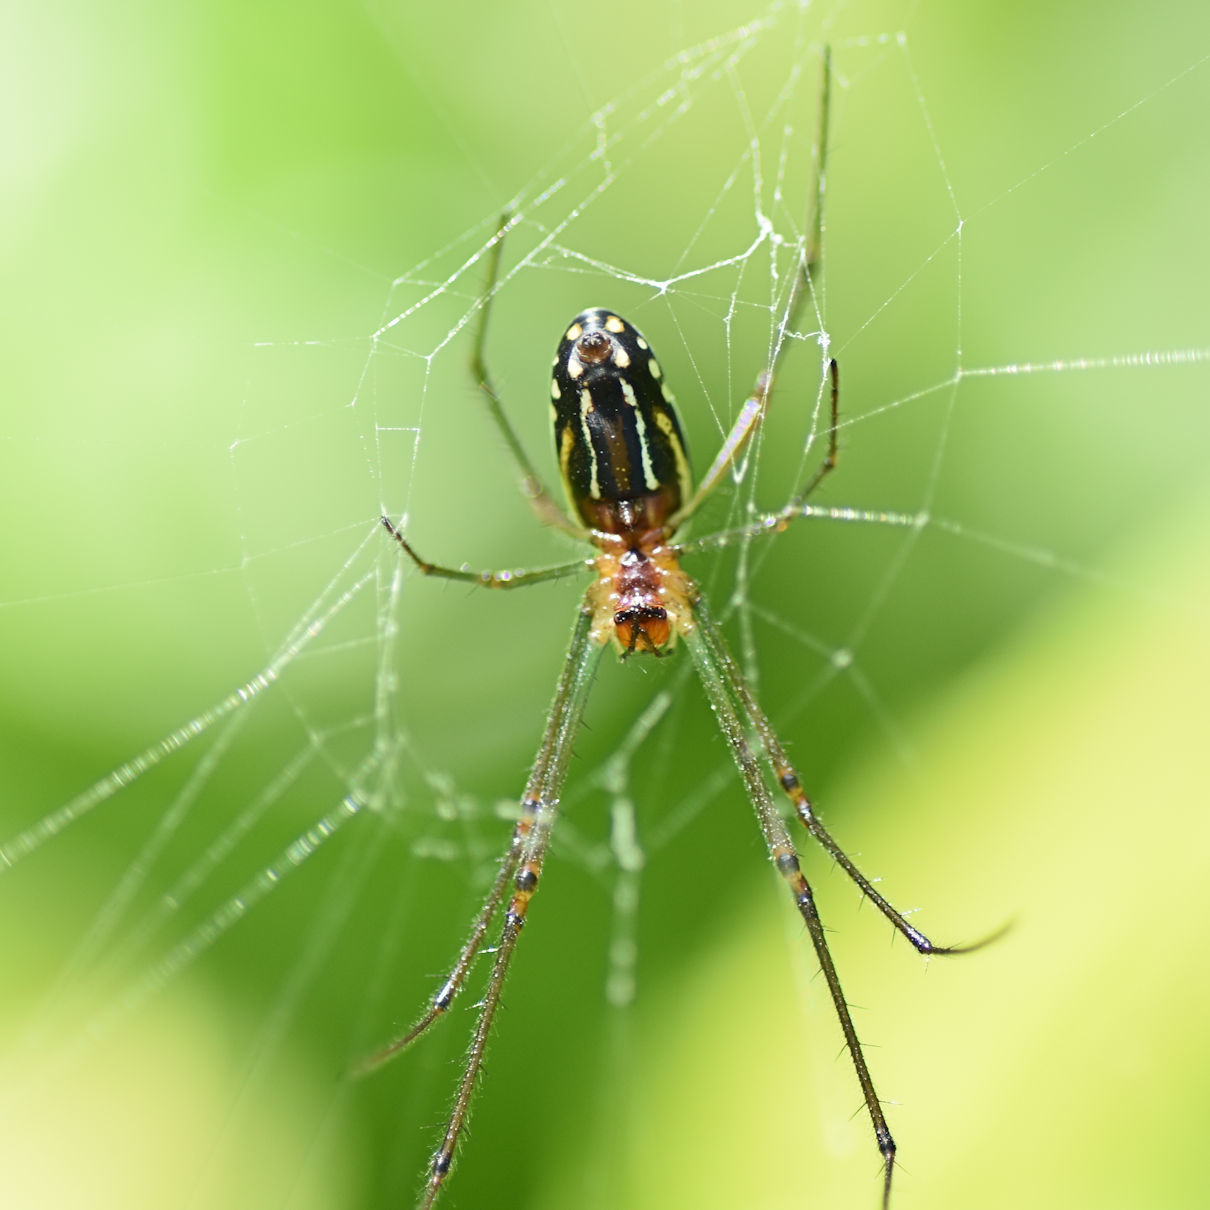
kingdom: Animalia
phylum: Arthropoda
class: Arachnida
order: Araneae
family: Tetragnathidae
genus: Leucauge
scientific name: Leucauge argyra
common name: Longjawed orb weavers
